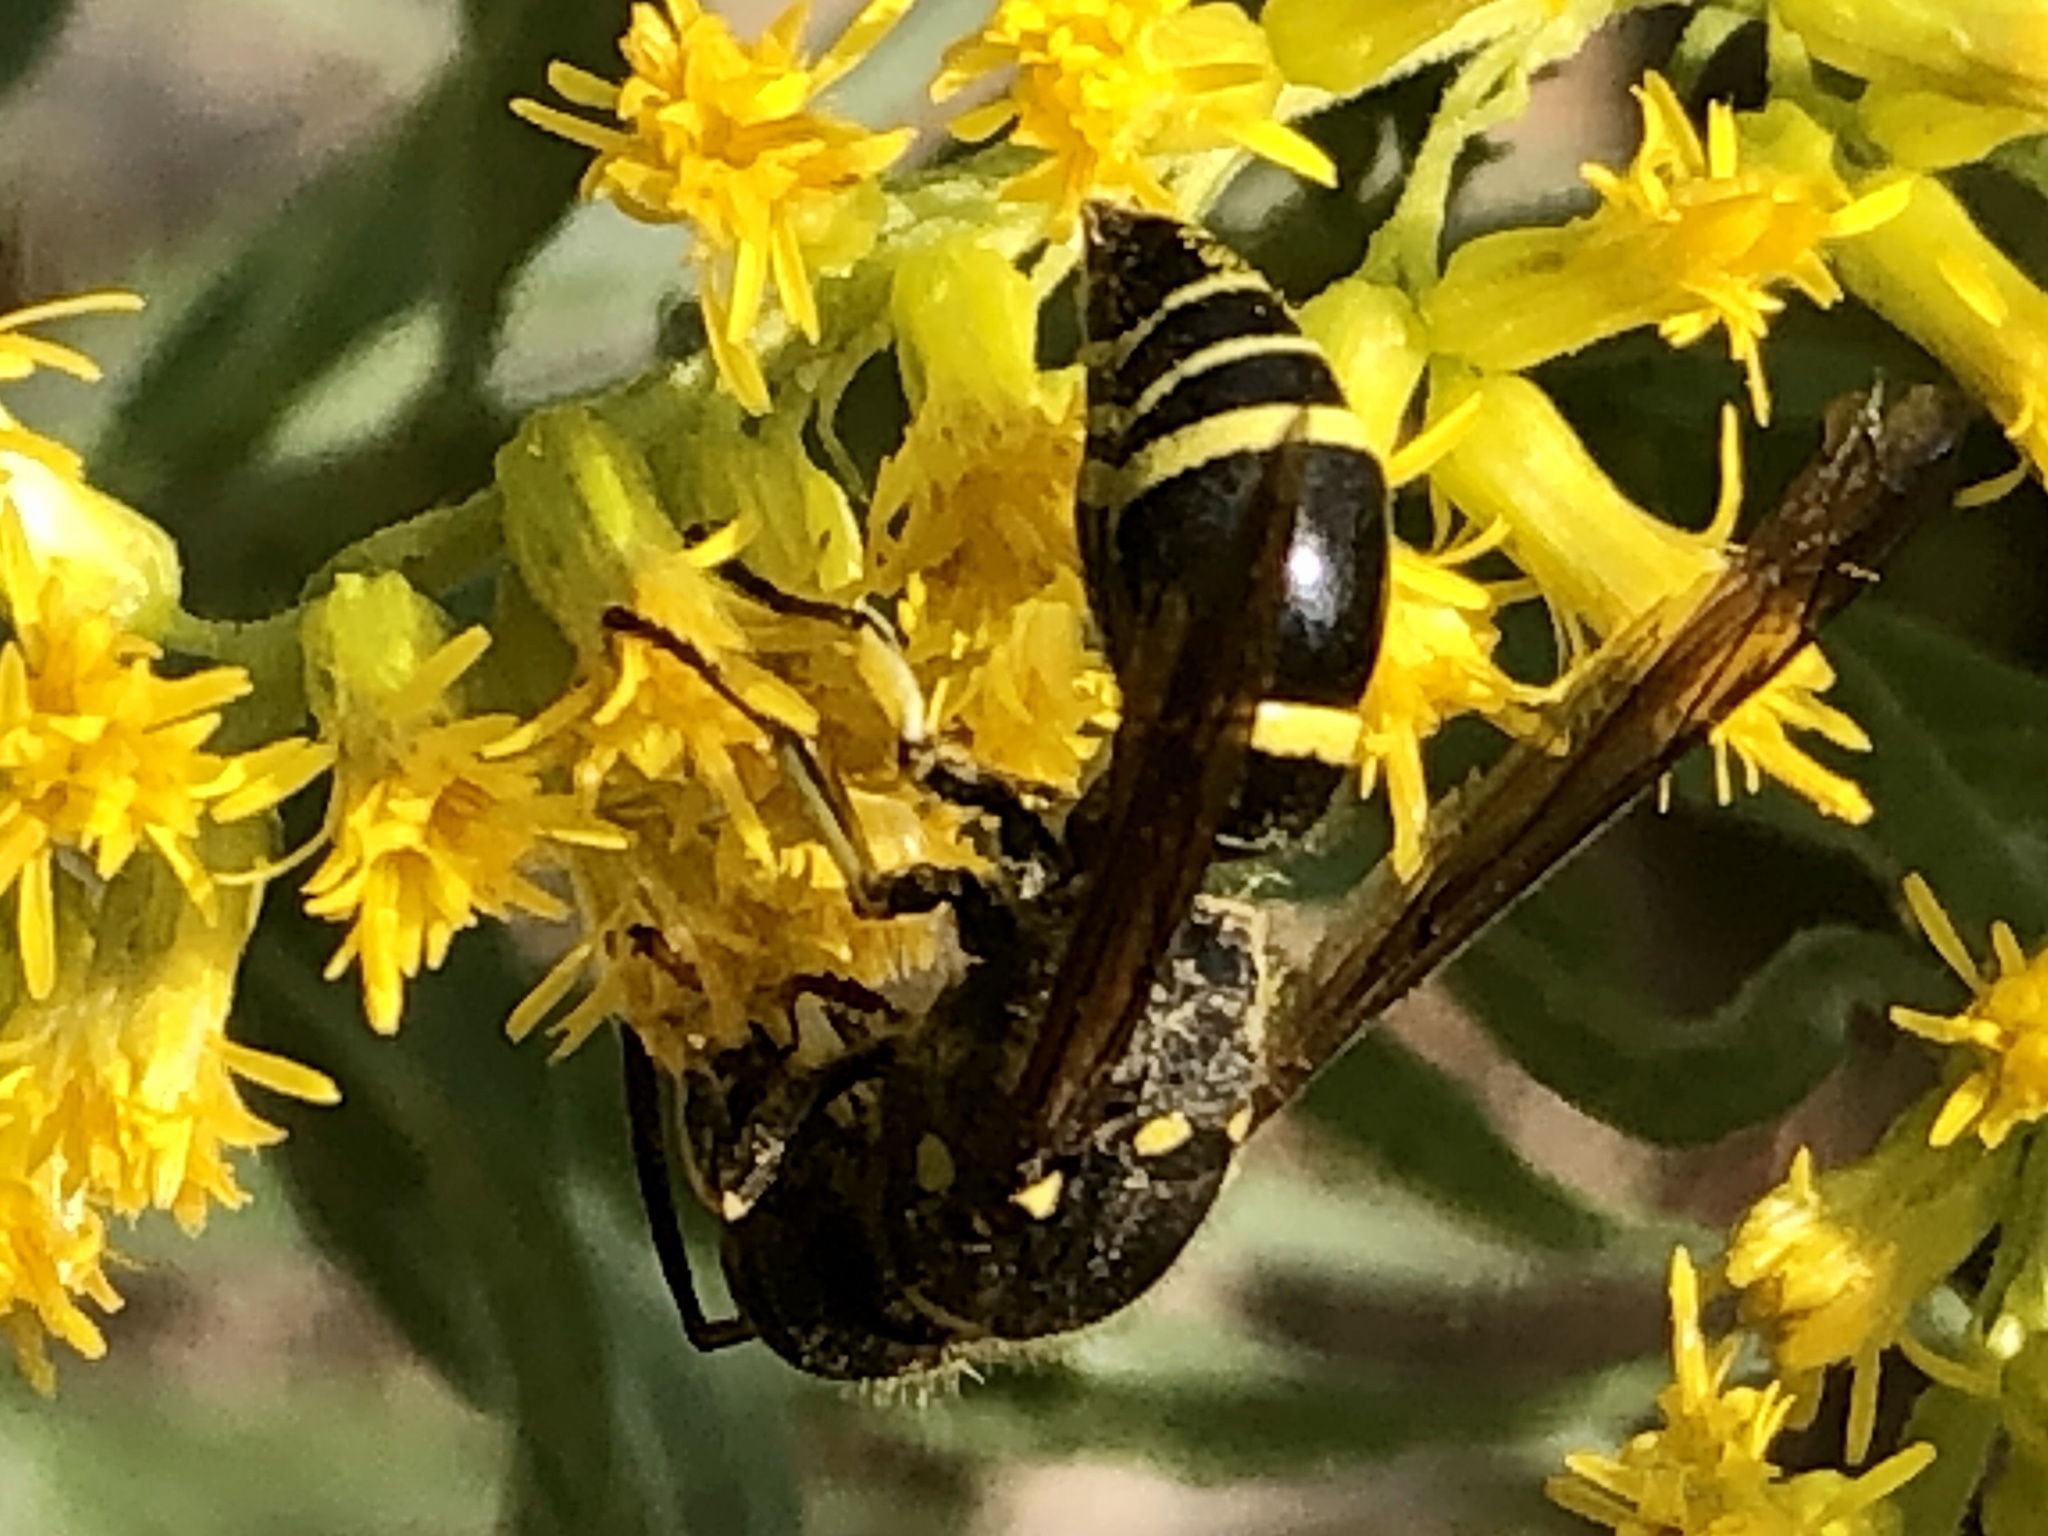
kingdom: Animalia
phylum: Arthropoda
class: Insecta
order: Hymenoptera
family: Vespidae
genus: Ancistrocerus
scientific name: Ancistrocerus
